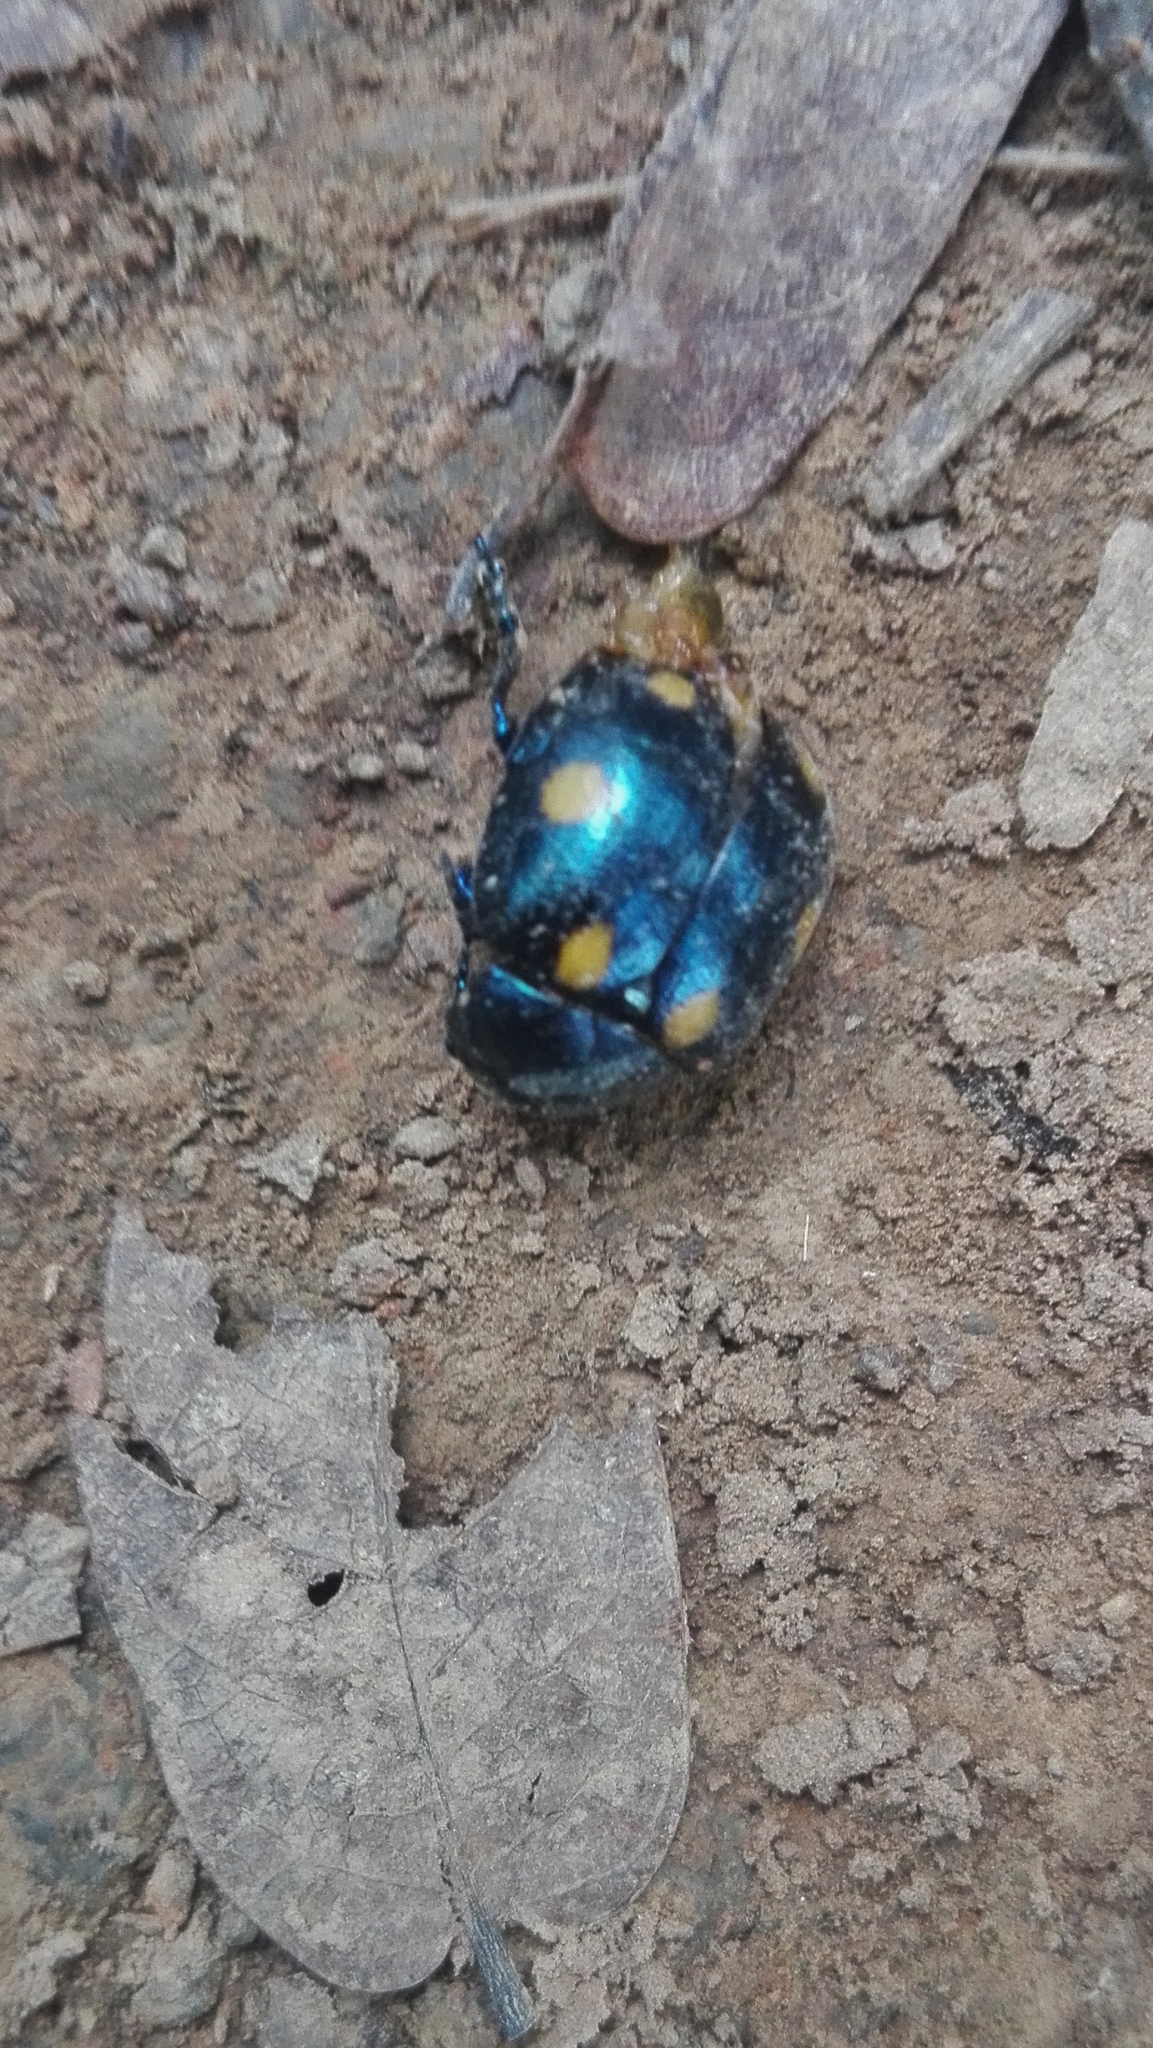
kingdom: Animalia
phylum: Arthropoda
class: Insecta
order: Coleoptera
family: Chrysomelidae
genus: Labidomera
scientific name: Labidomera
